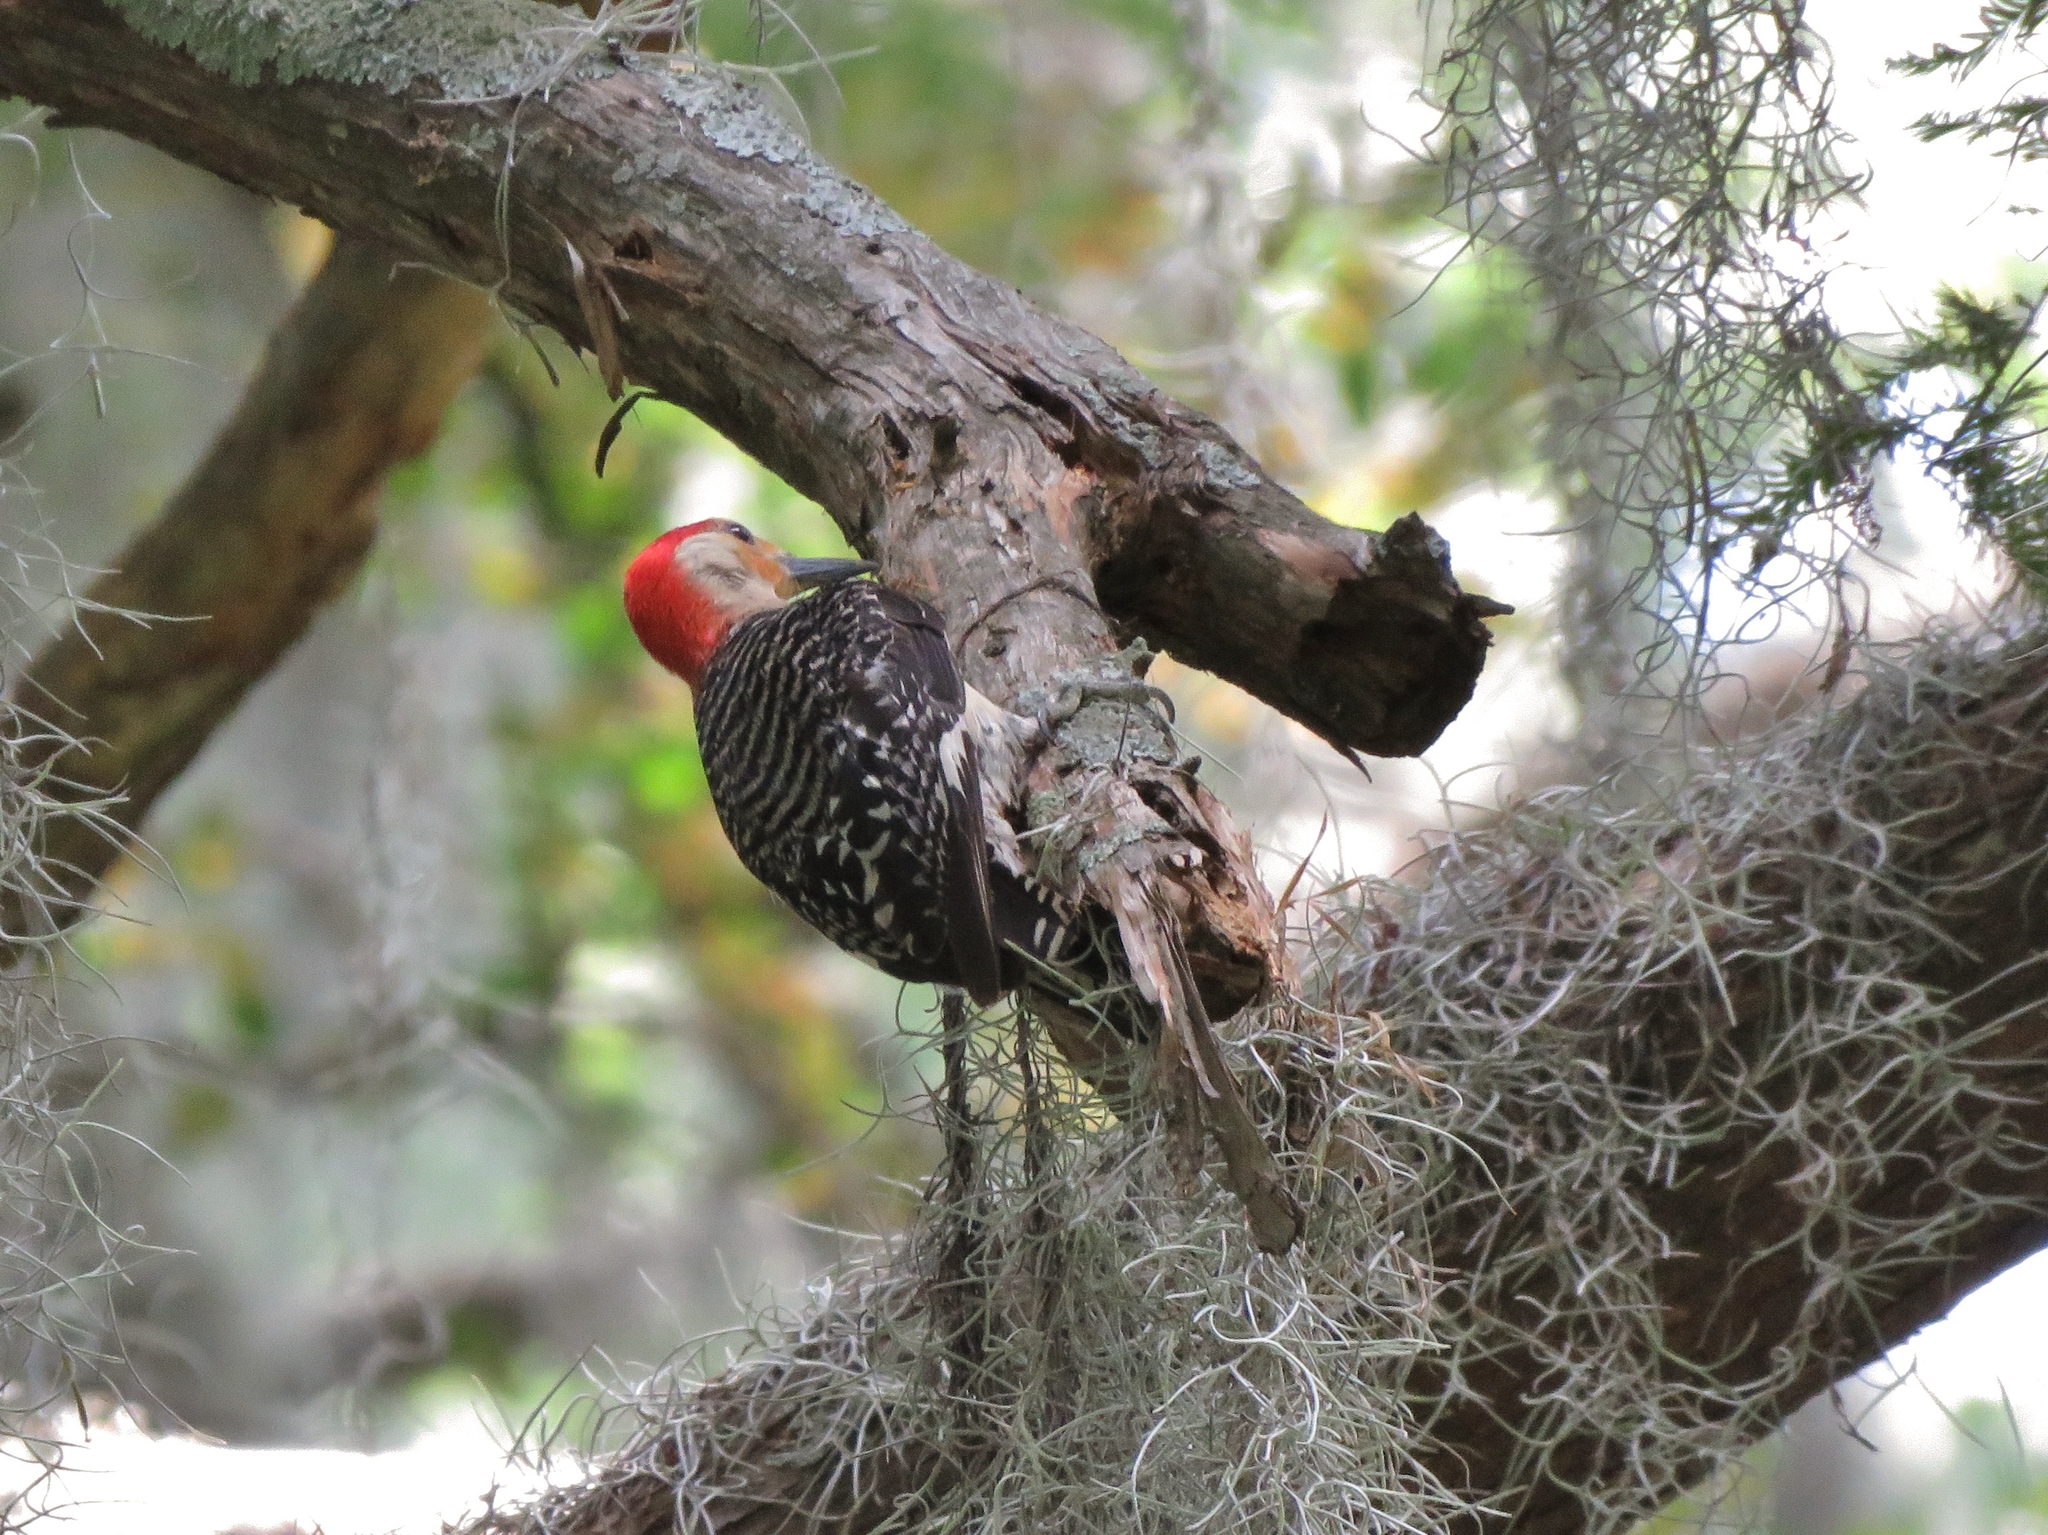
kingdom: Animalia
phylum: Chordata
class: Aves
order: Piciformes
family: Picidae
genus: Melanerpes
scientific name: Melanerpes carolinus
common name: Red-bellied woodpecker
